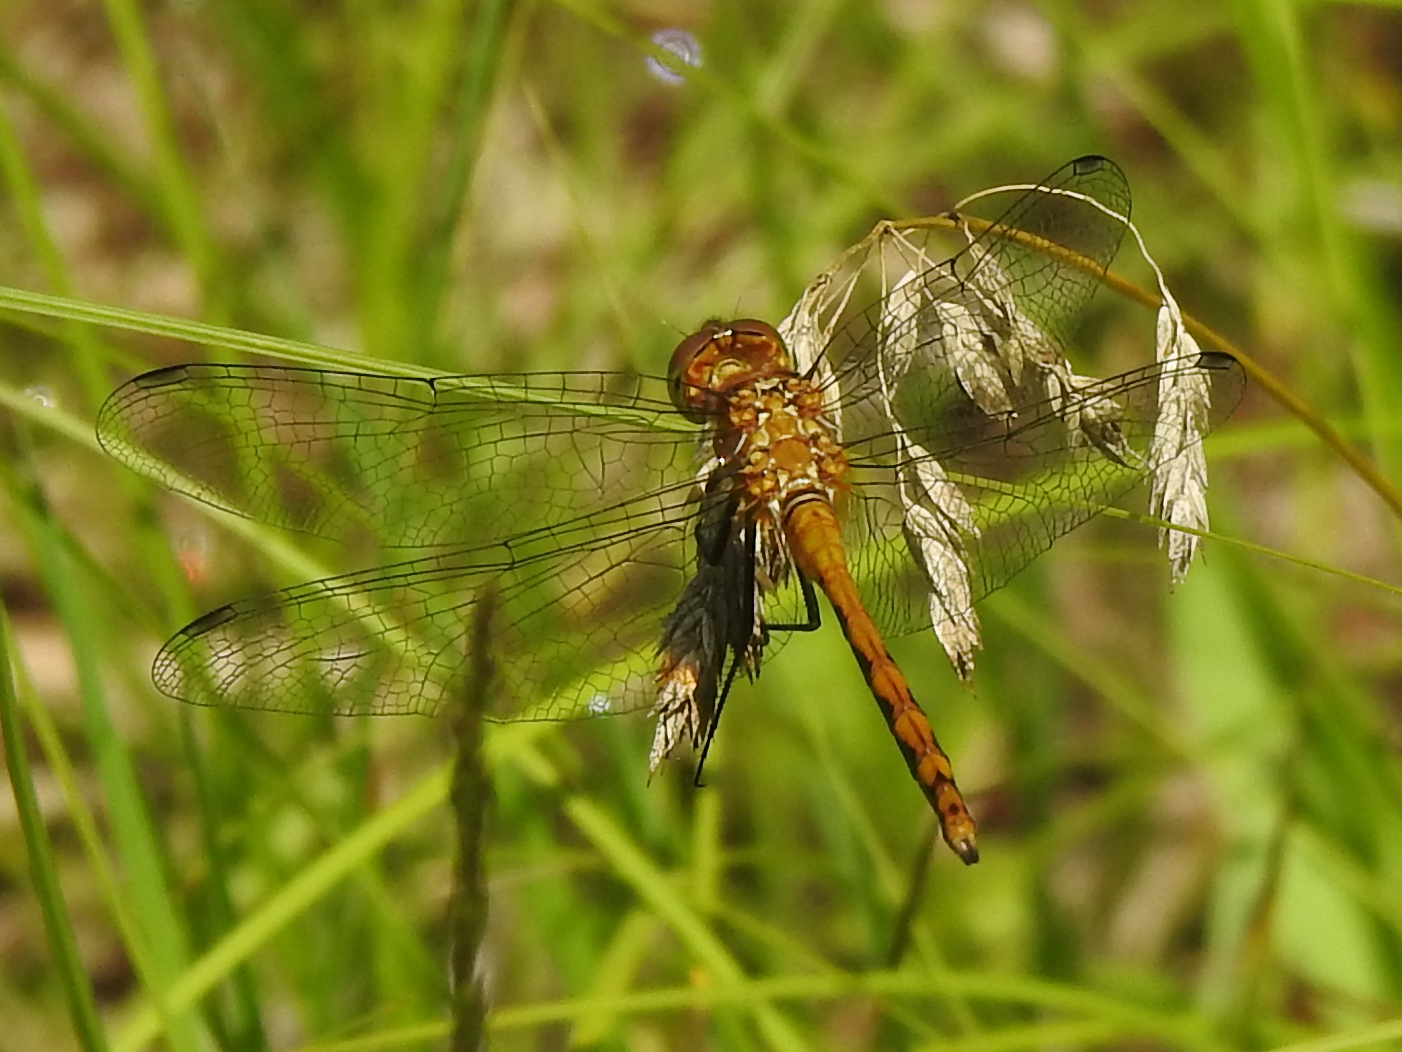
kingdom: Animalia
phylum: Arthropoda
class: Insecta
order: Odonata
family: Libellulidae
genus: Sympetrum
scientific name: Sympetrum
